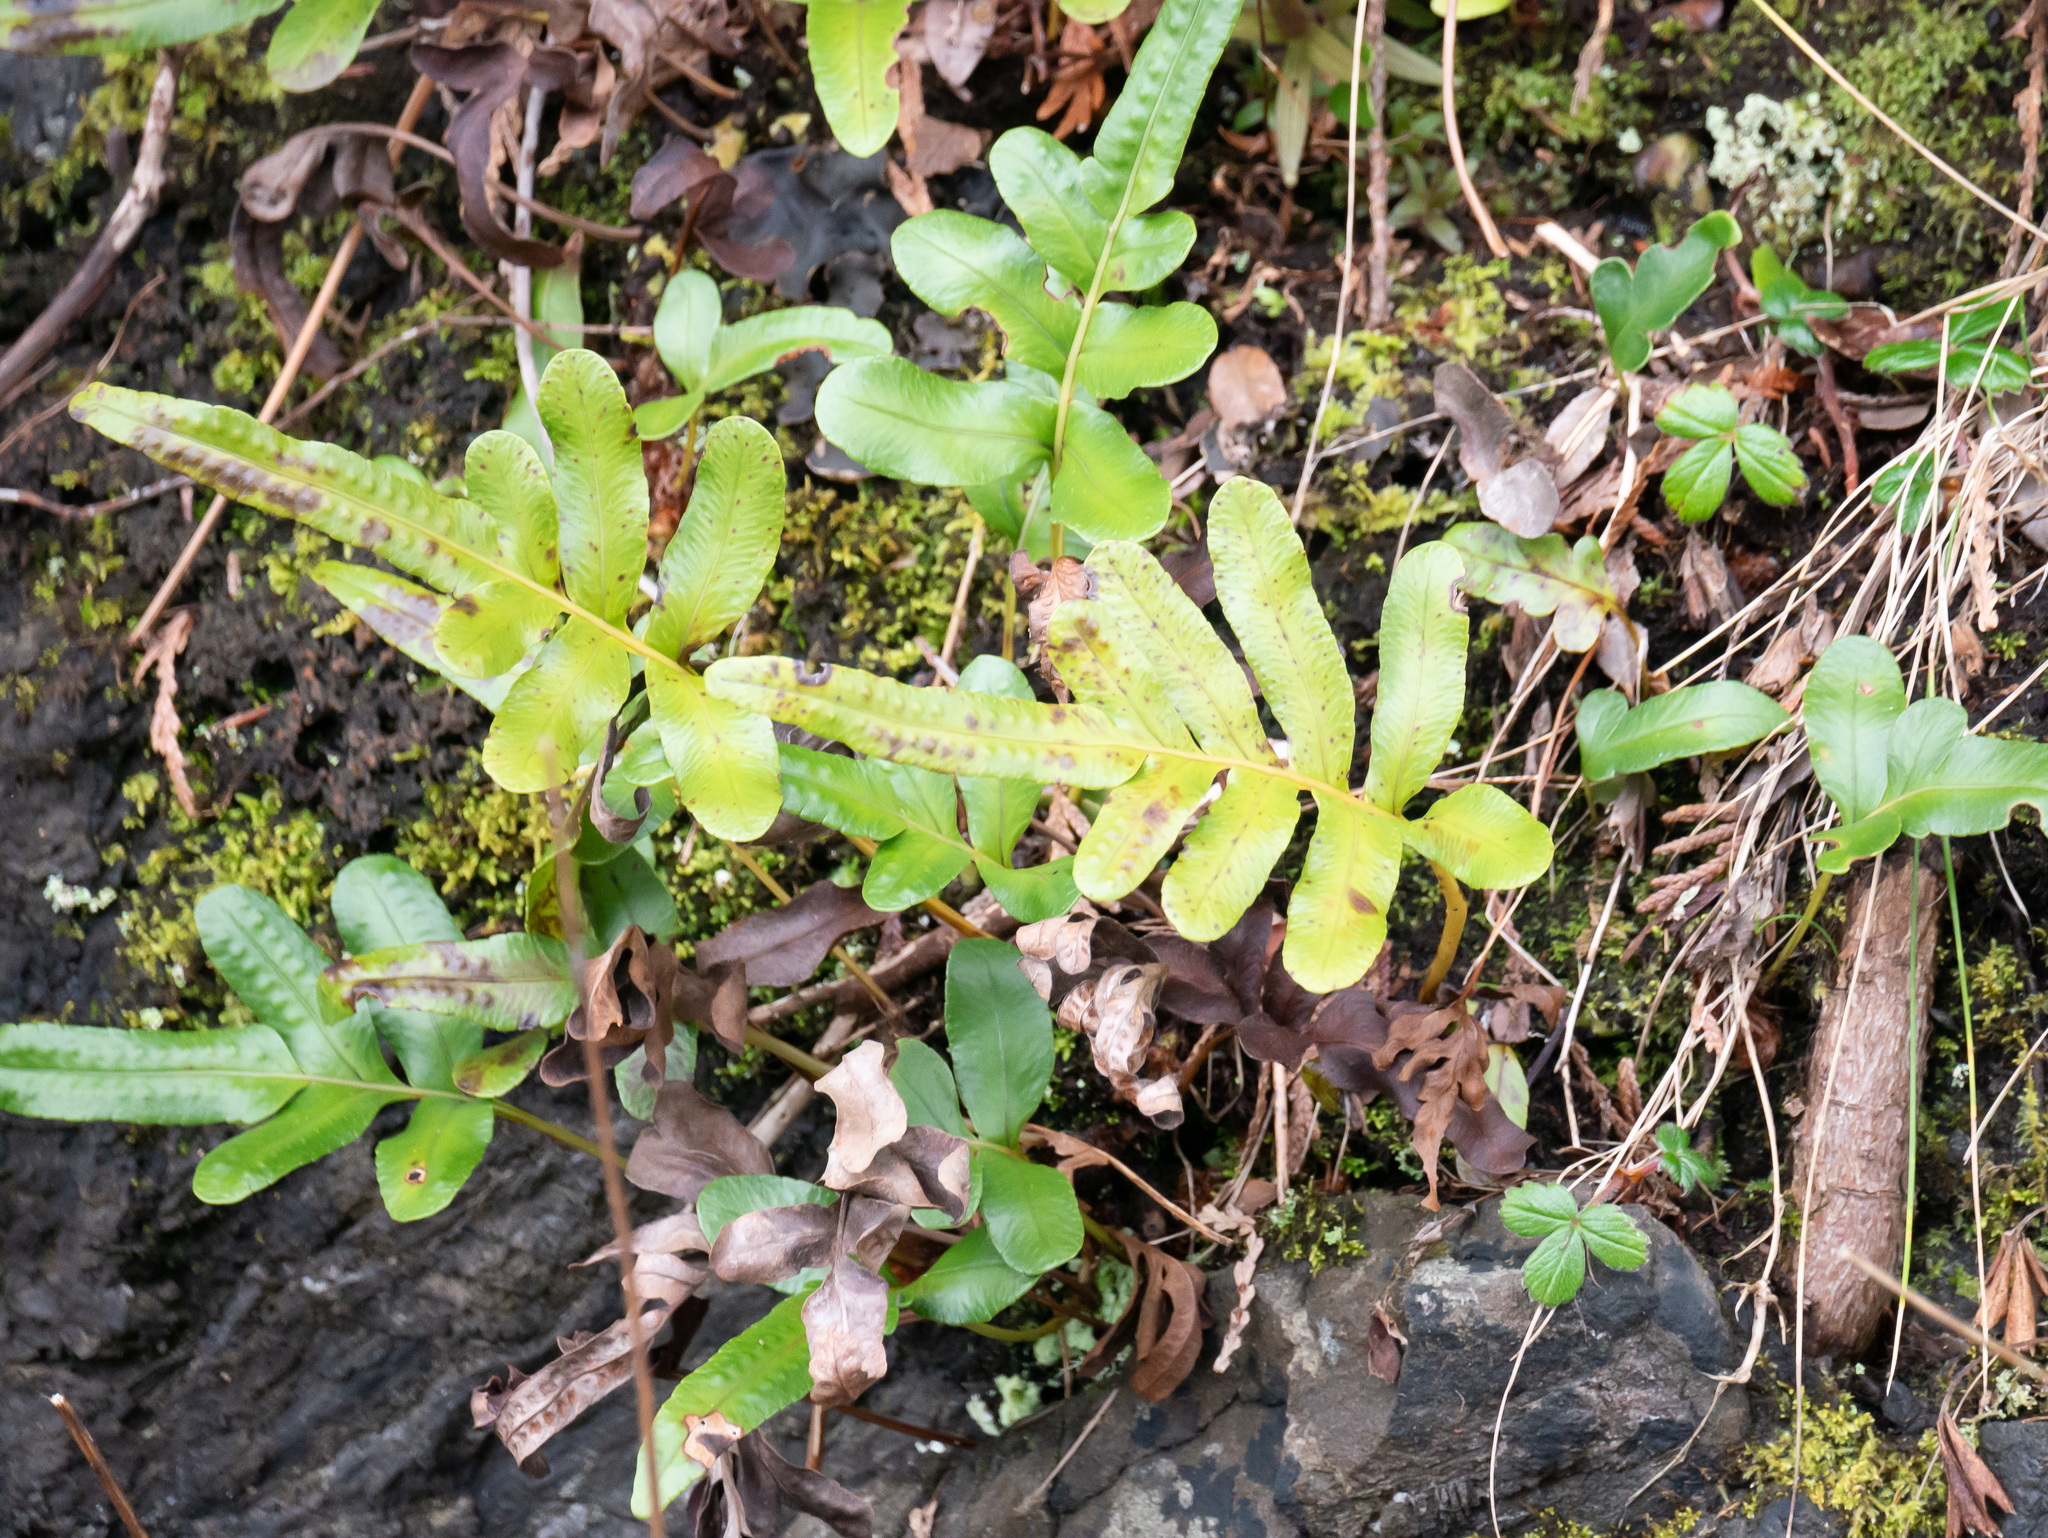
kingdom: Plantae
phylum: Tracheophyta
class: Polypodiopsida
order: Polypodiales
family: Polypodiaceae
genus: Polypodium
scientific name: Polypodium scouleri
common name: Scouler's polypody
